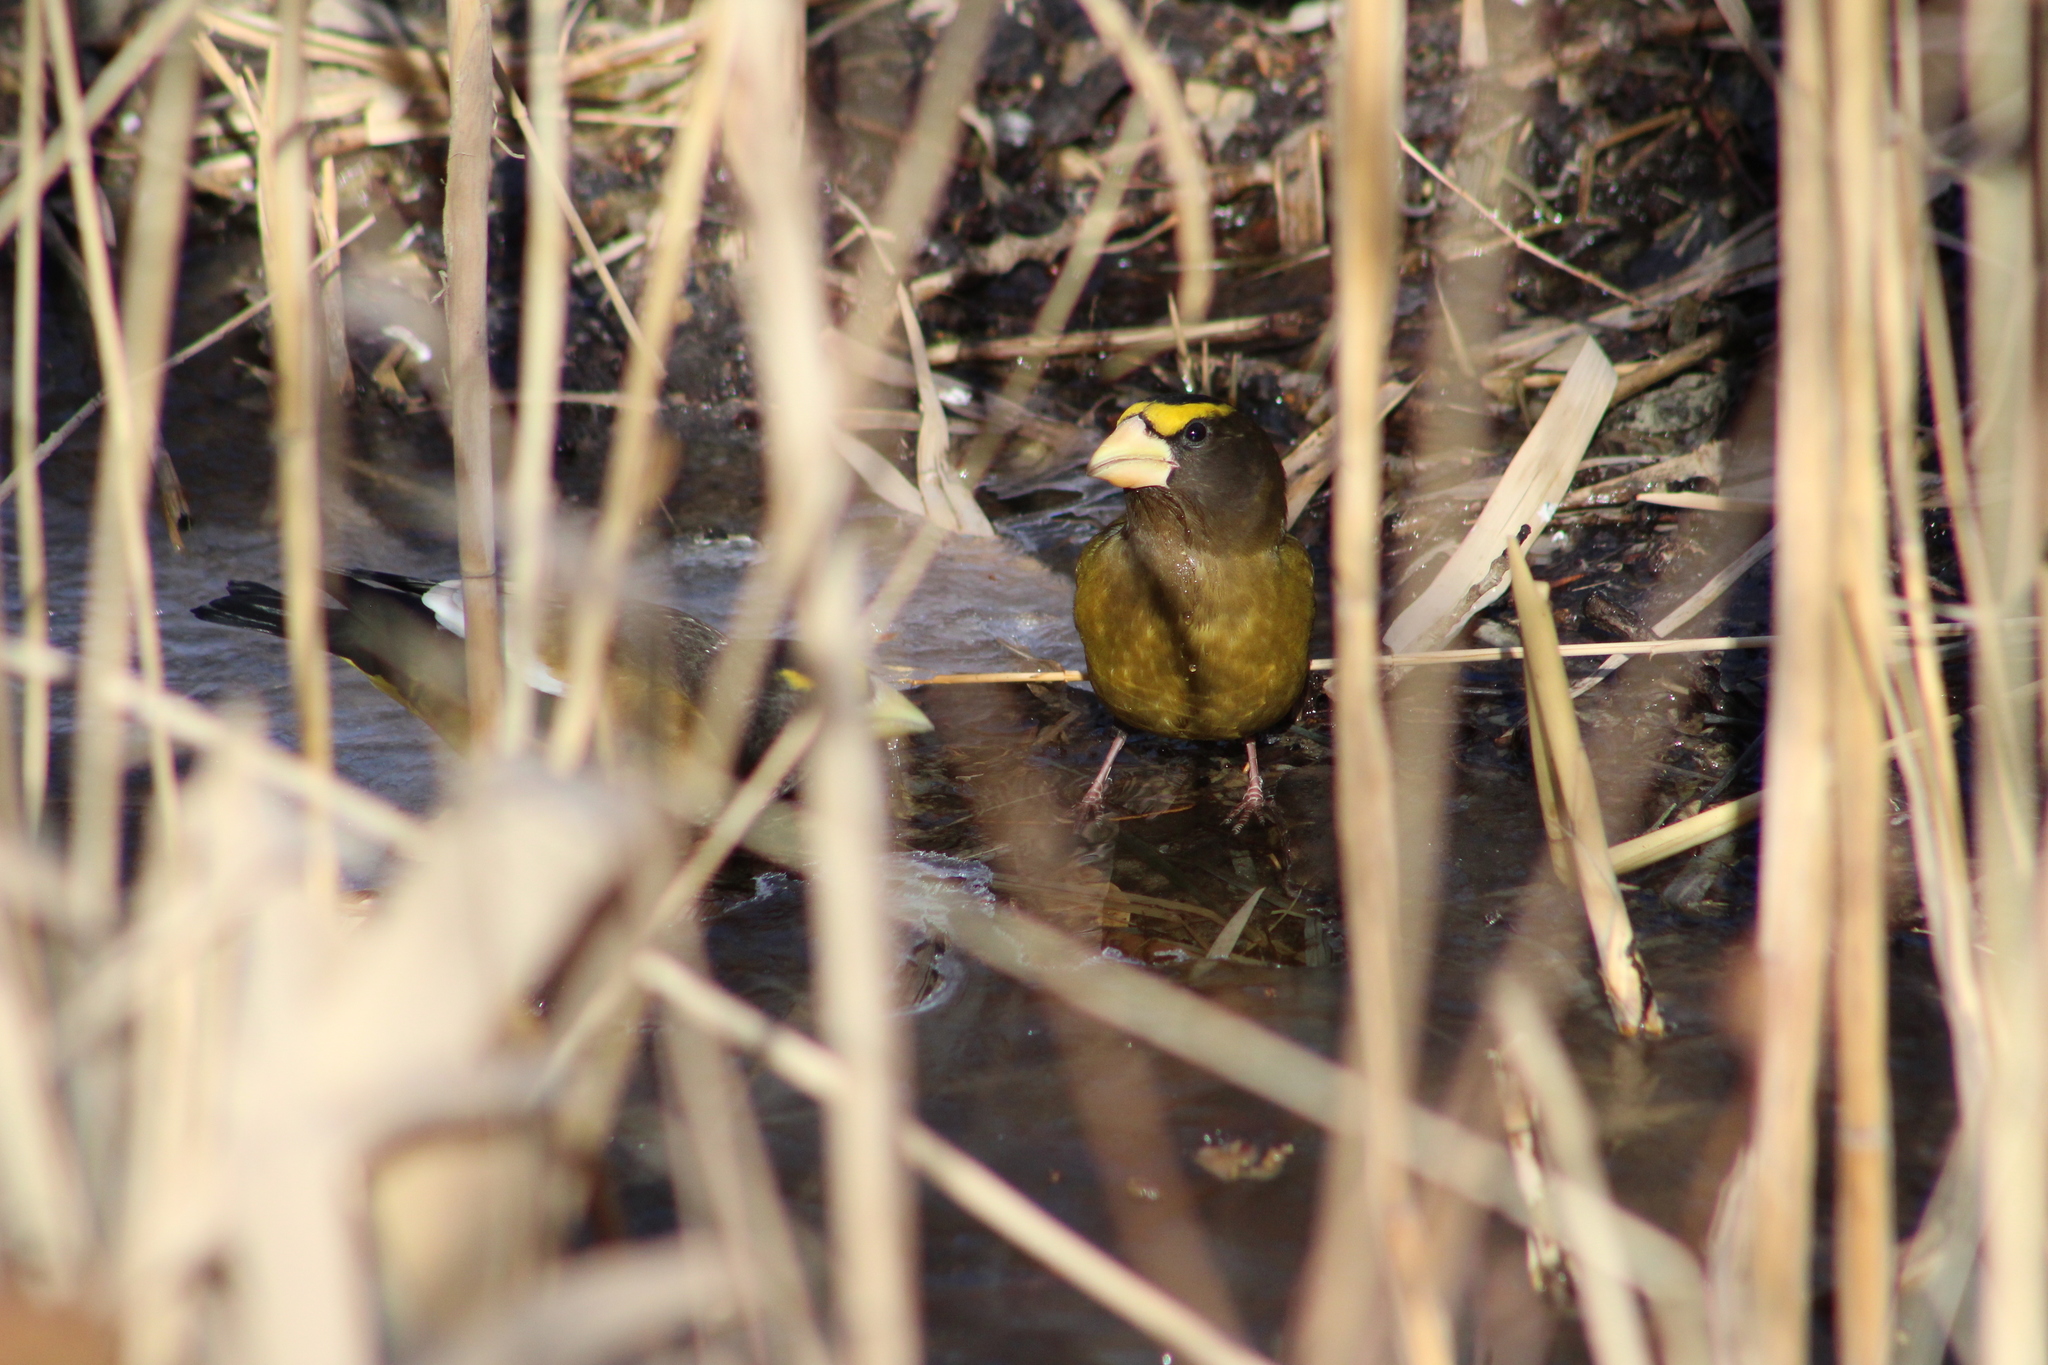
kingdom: Animalia
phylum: Chordata
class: Aves
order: Passeriformes
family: Fringillidae
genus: Hesperiphona
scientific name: Hesperiphona vespertina
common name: Evening grosbeak
